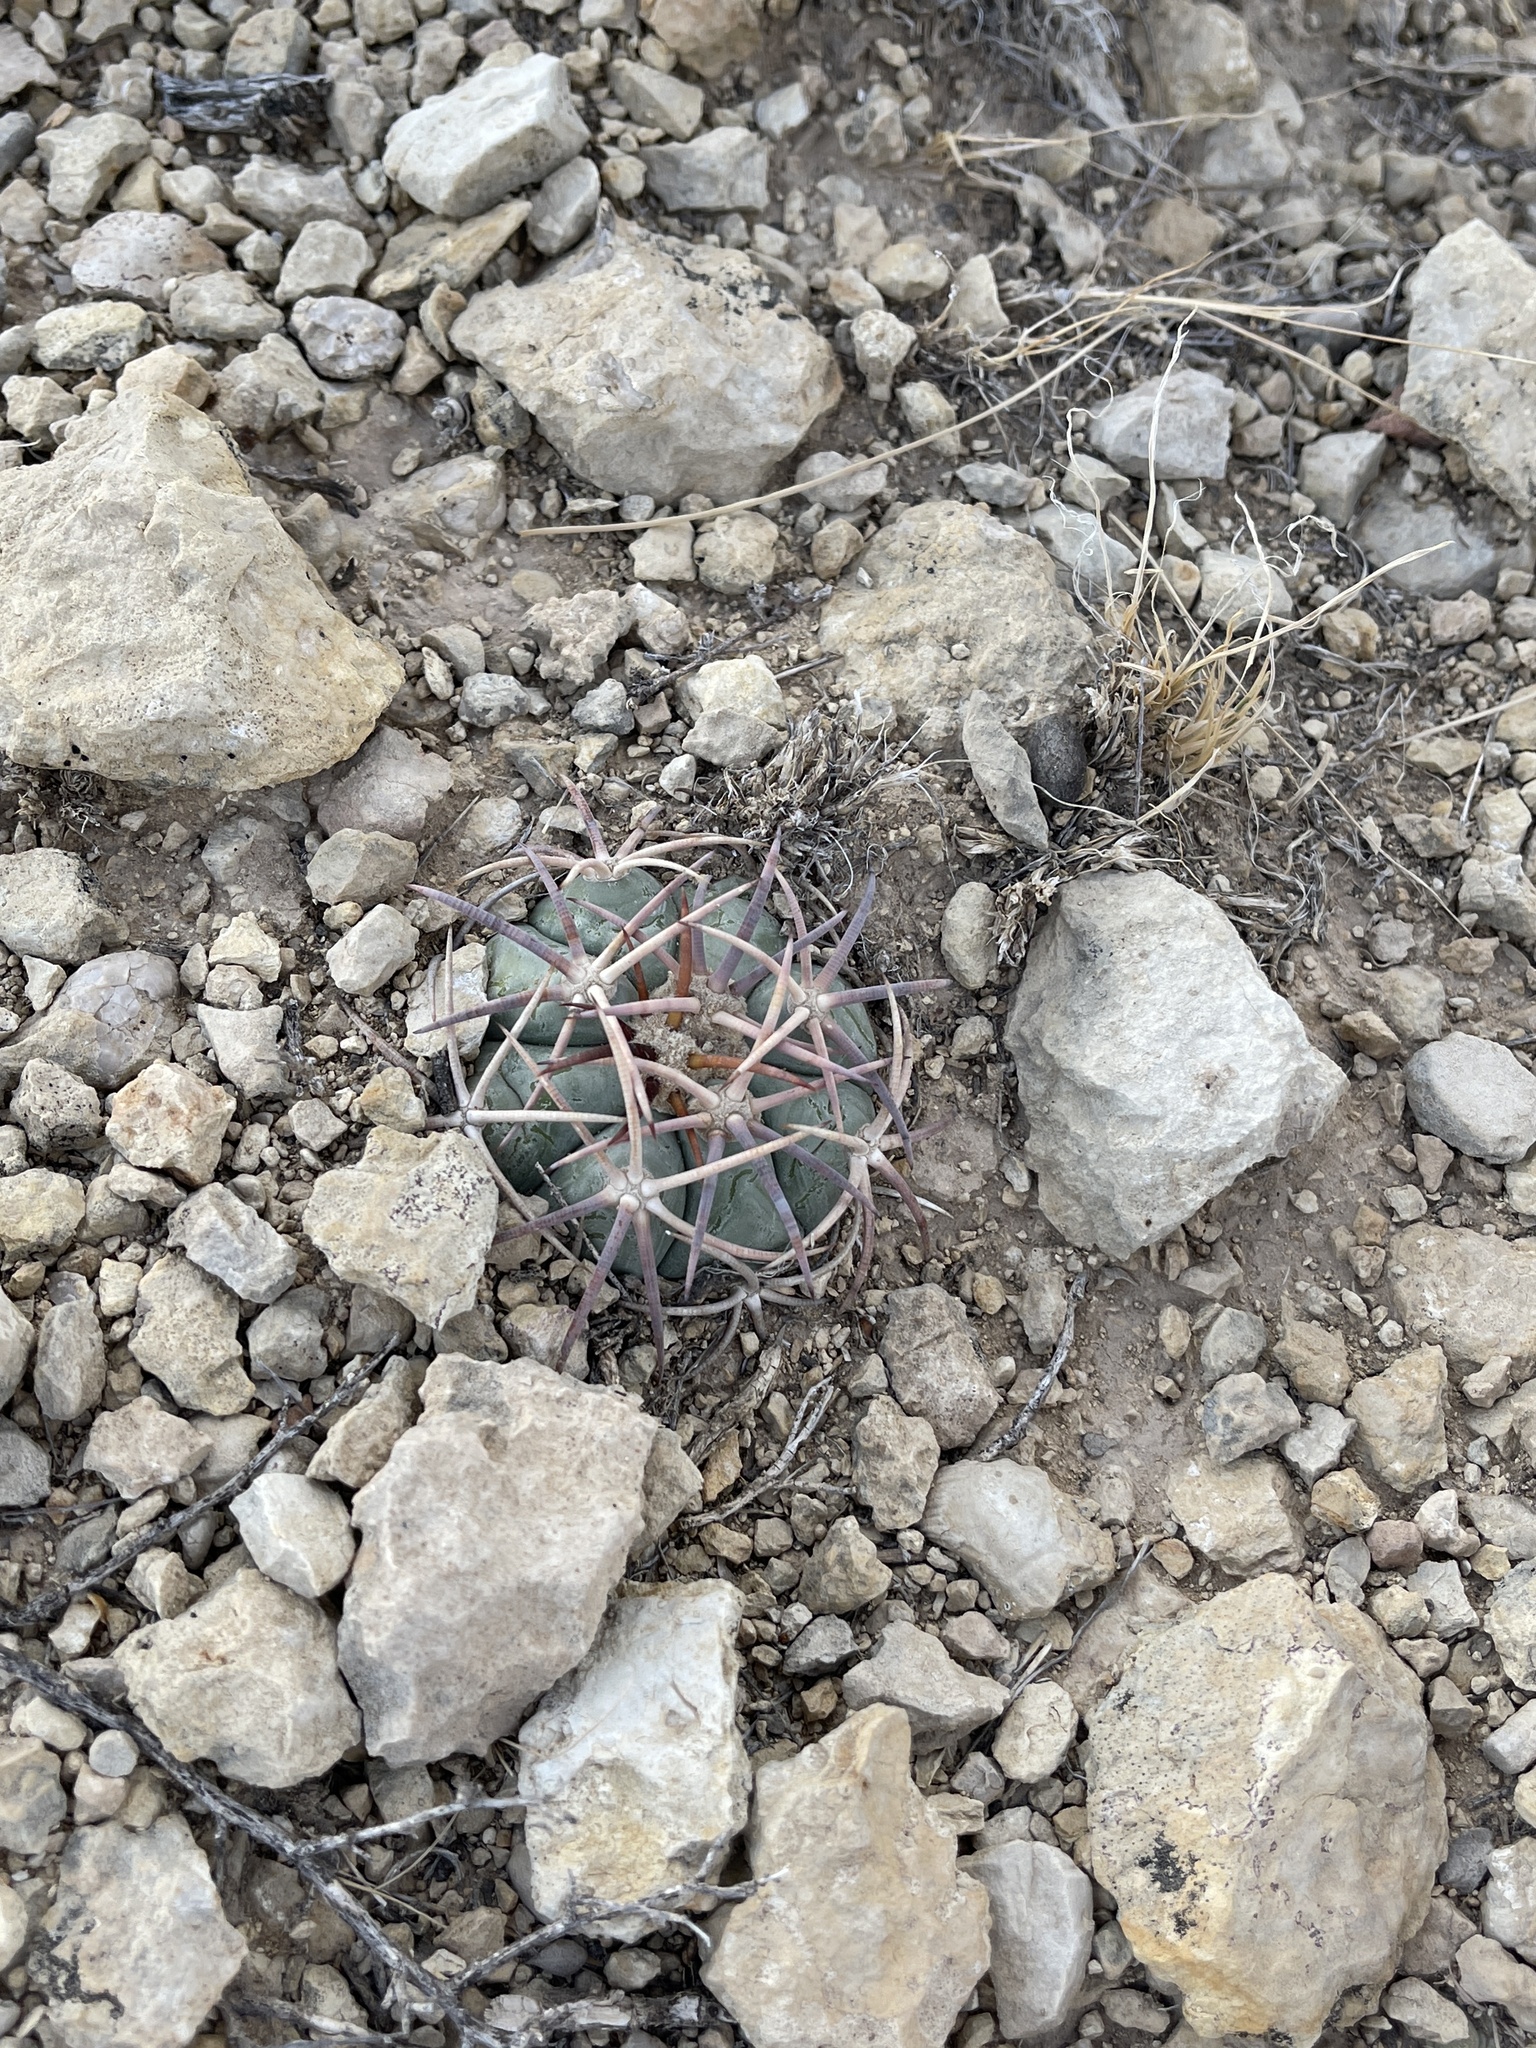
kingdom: Plantae
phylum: Tracheophyta
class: Magnoliopsida
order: Caryophyllales
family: Cactaceae
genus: Echinocactus
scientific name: Echinocactus horizonthalonius
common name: Devilshead
